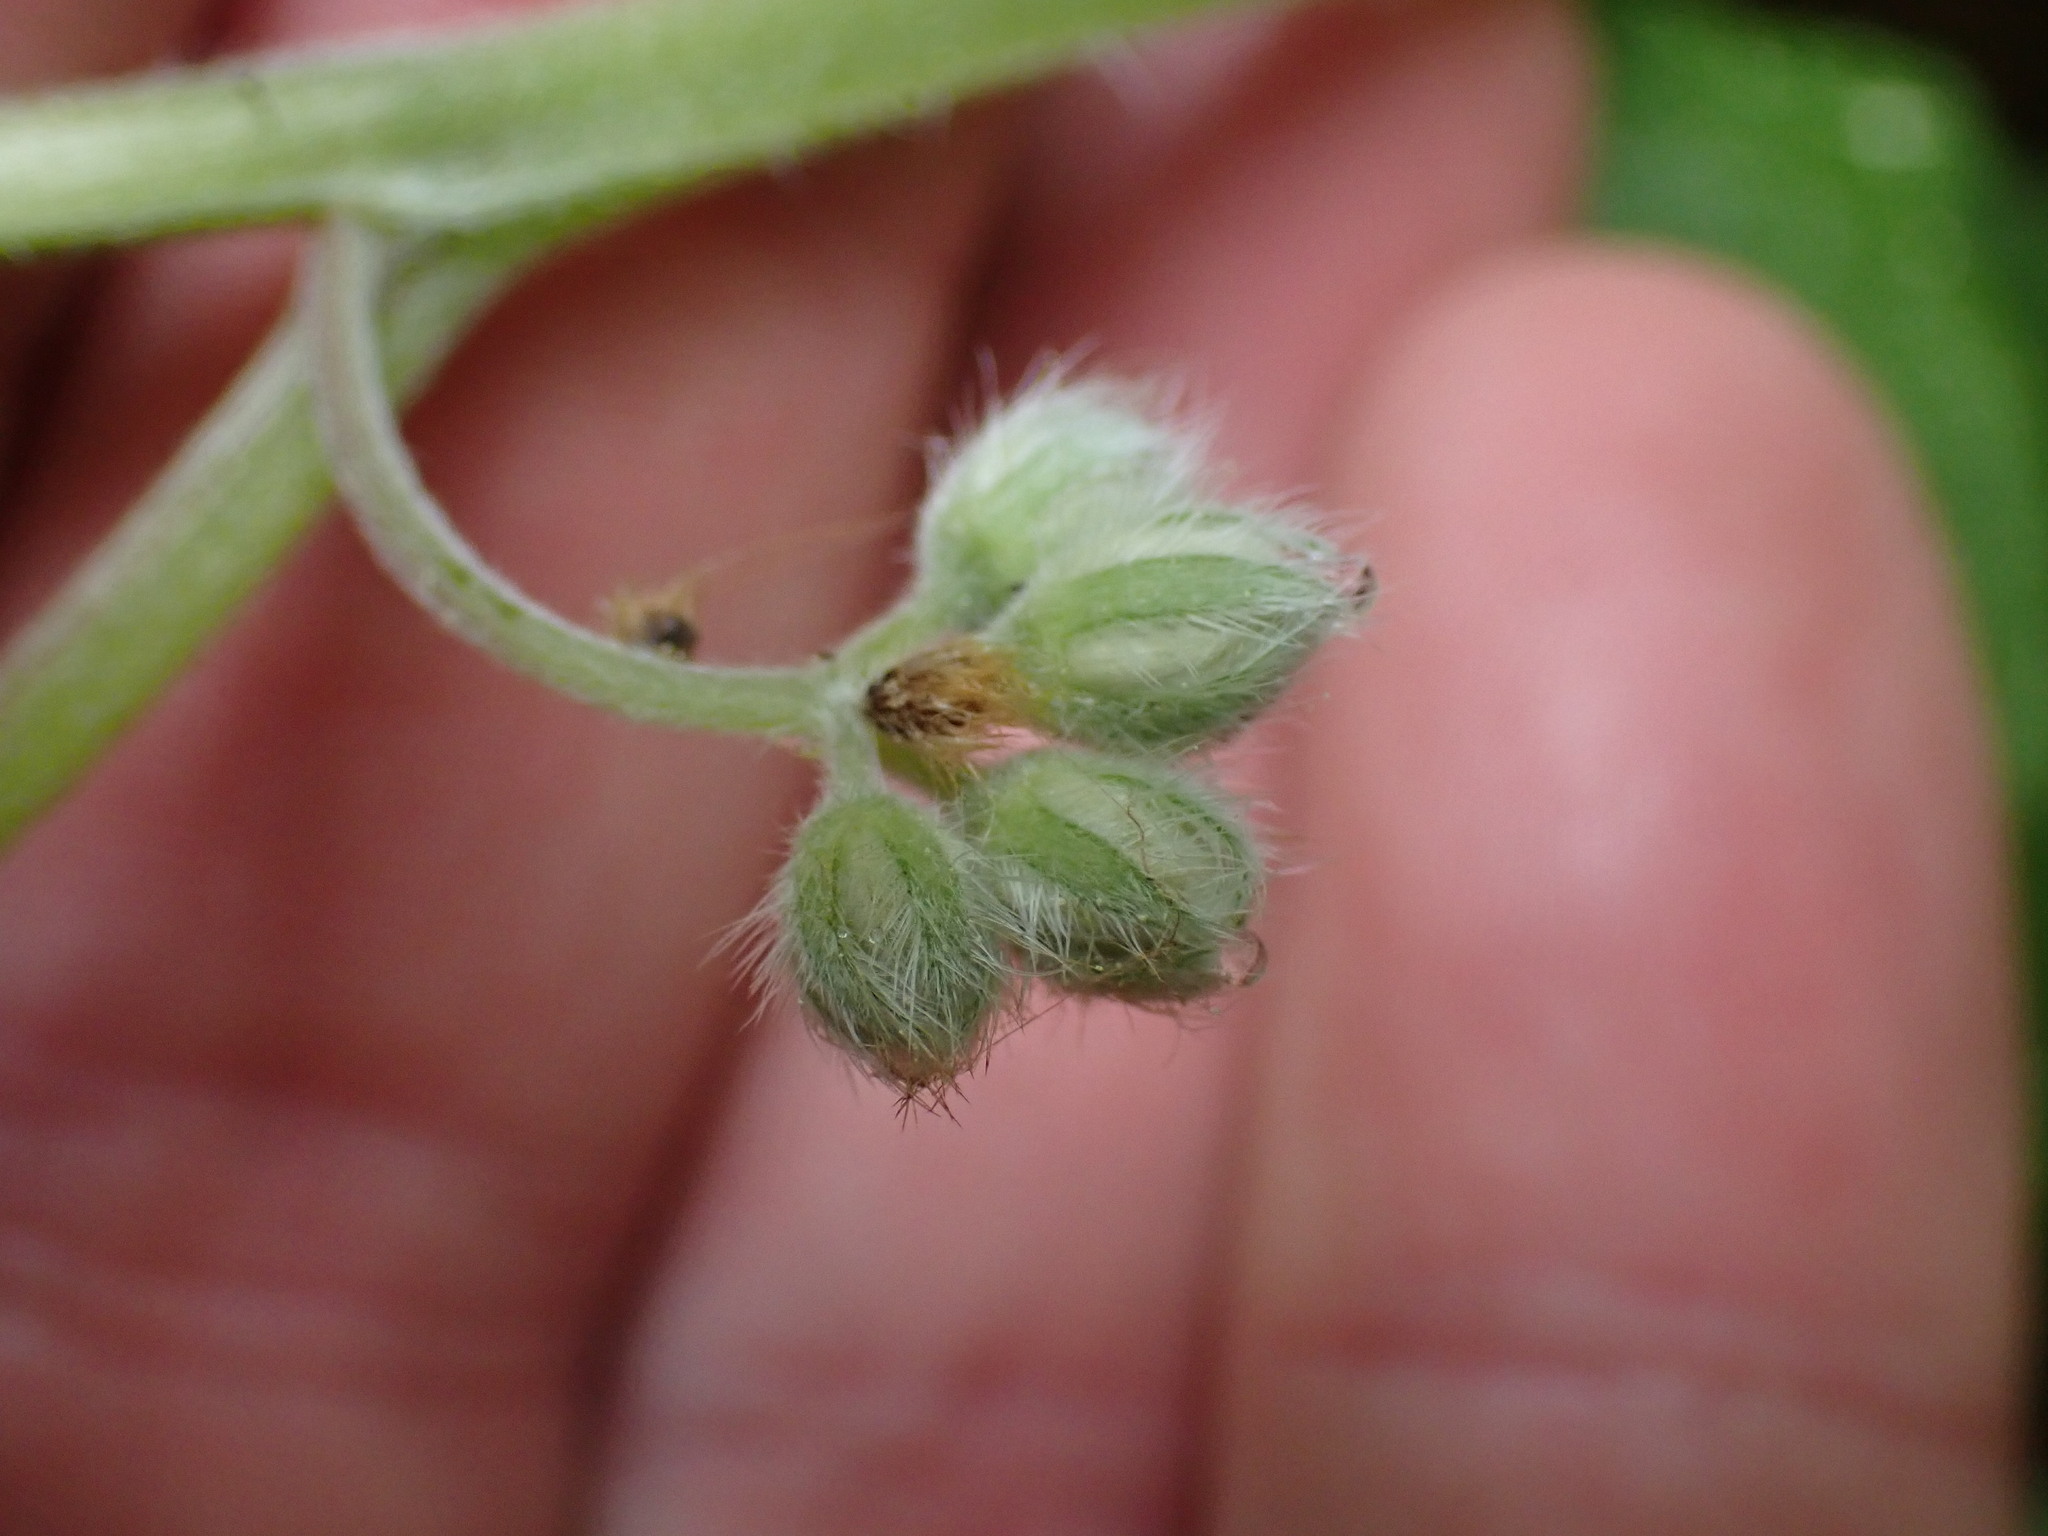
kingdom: Plantae
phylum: Tracheophyta
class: Magnoliopsida
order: Boraginales
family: Hydrophyllaceae
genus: Hydrophyllum
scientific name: Hydrophyllum fendleri
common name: Fendler's waterleaf
